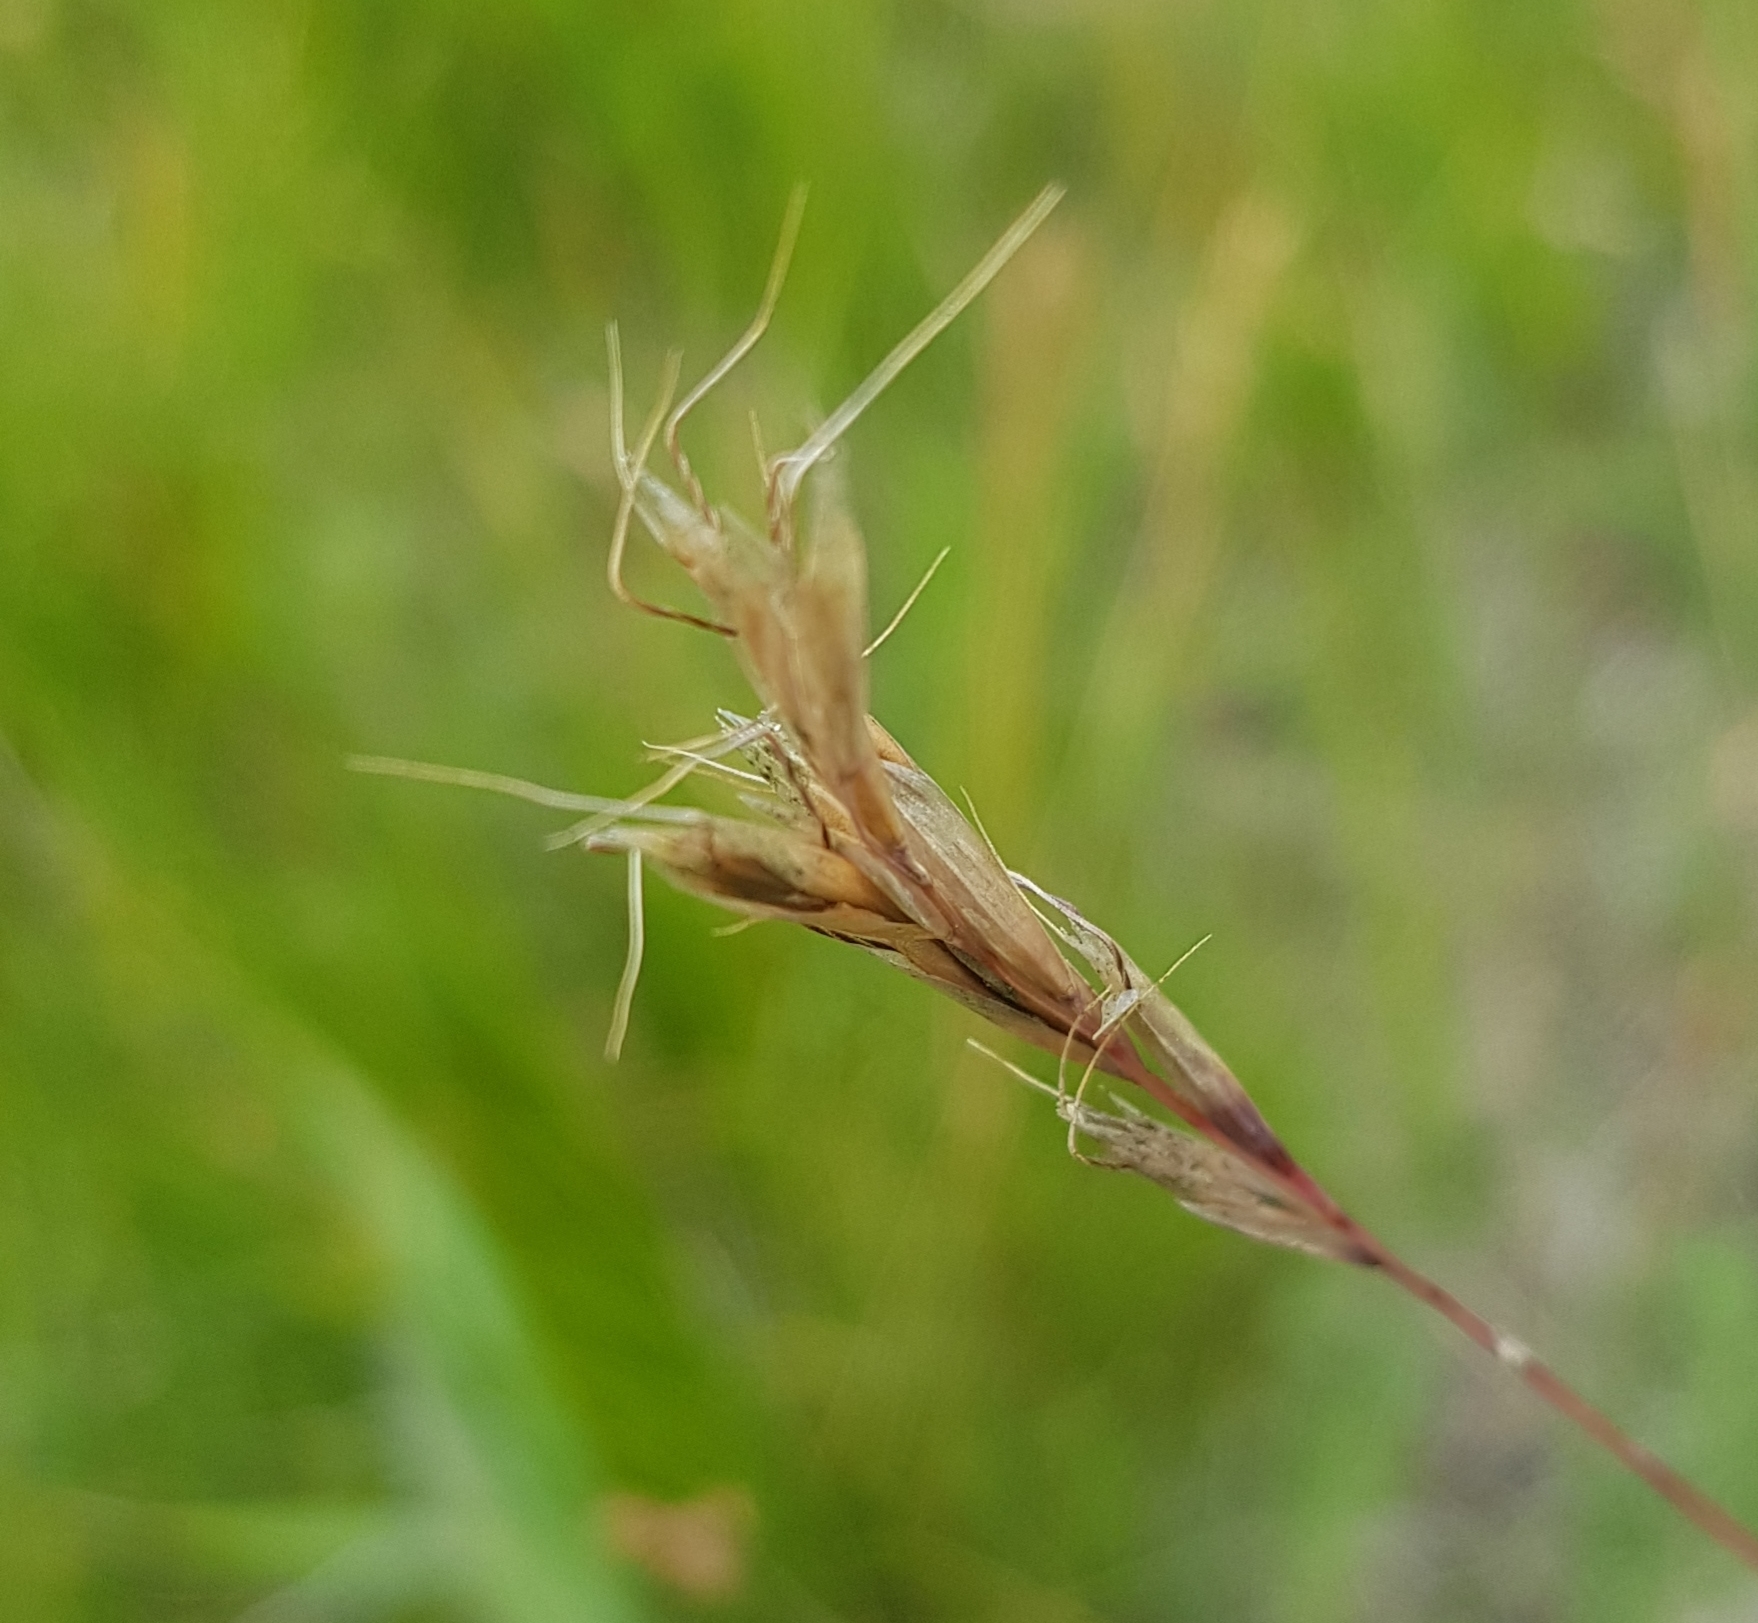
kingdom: Plantae
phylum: Tracheophyta
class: Liliopsida
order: Poales
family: Poaceae
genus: Helictochloa
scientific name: Helictochloa hookeri
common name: Hooker's alpine oatgrass
